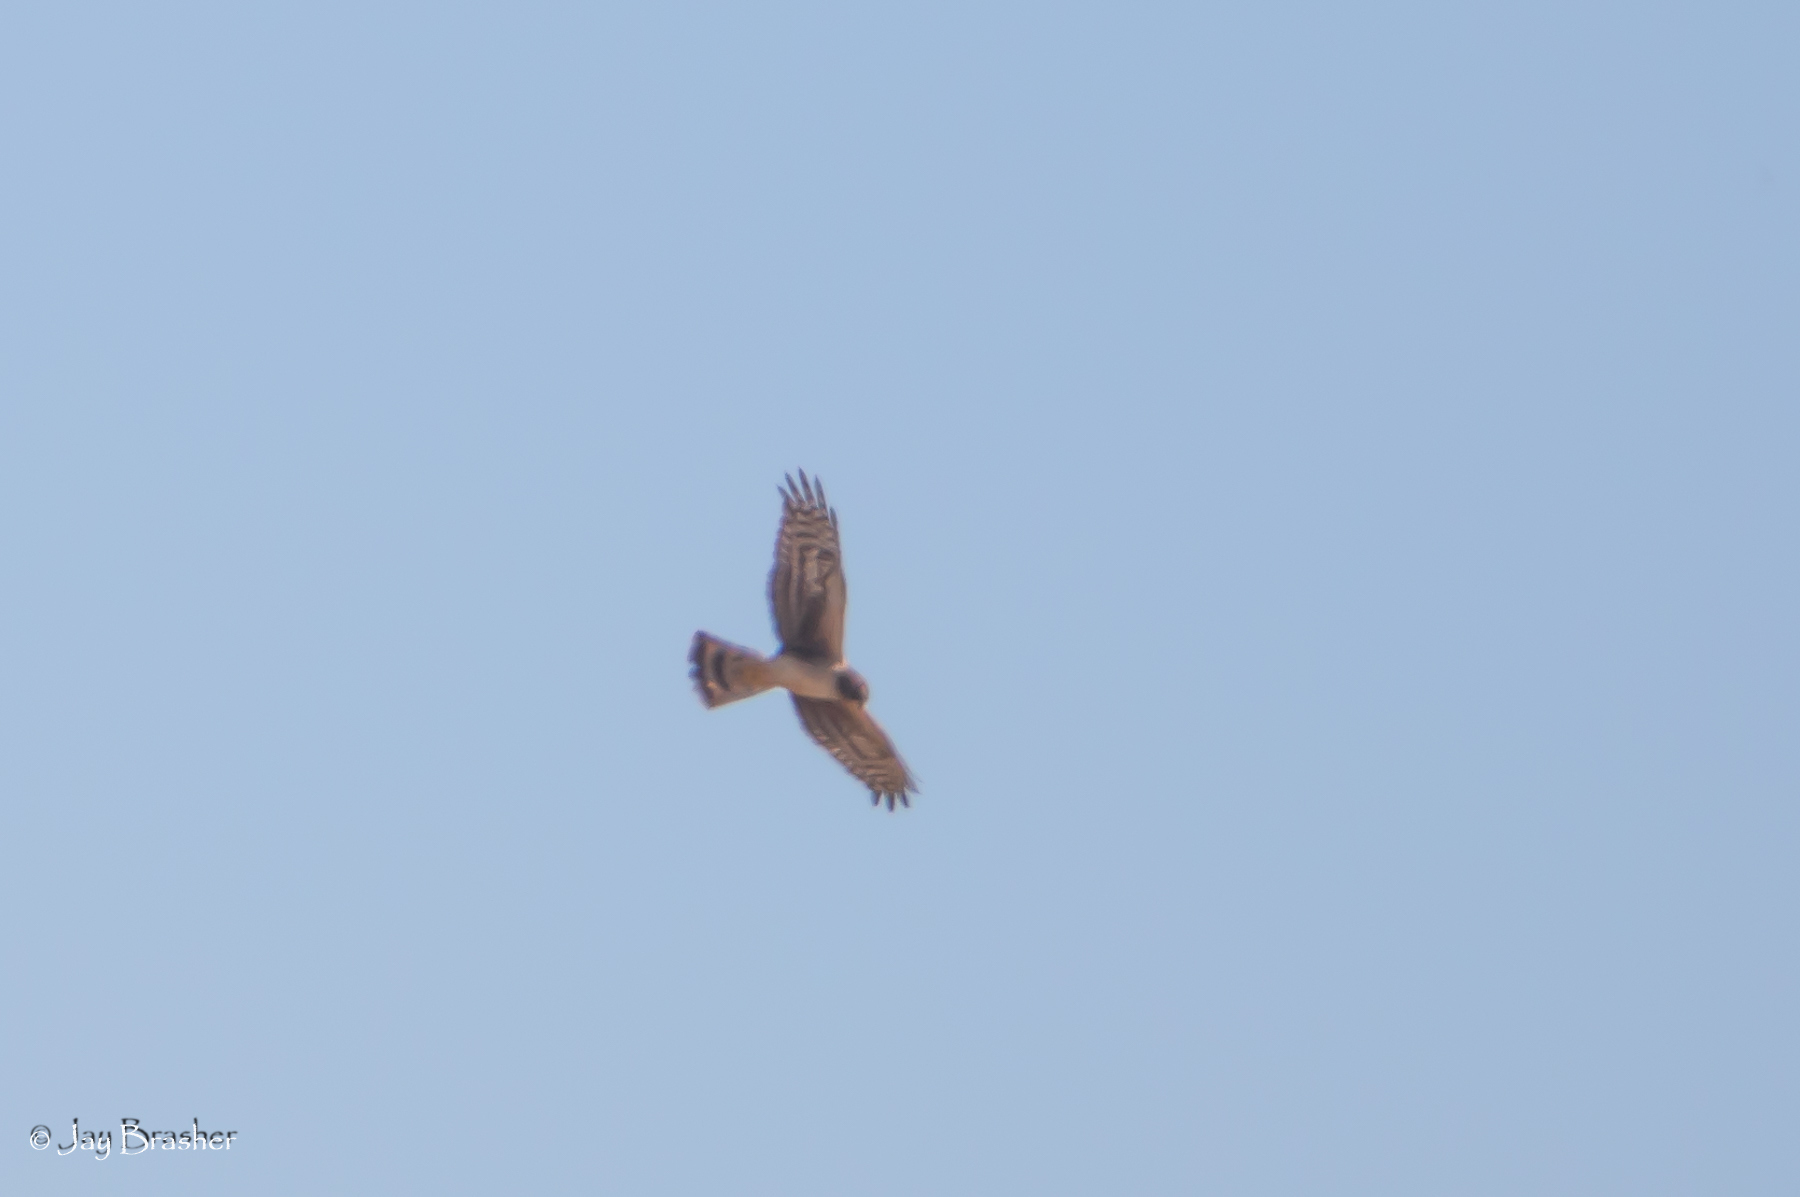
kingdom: Animalia
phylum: Chordata
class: Aves
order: Accipitriformes
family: Accipitridae
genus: Circus
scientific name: Circus cyaneus
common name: Hen harrier
